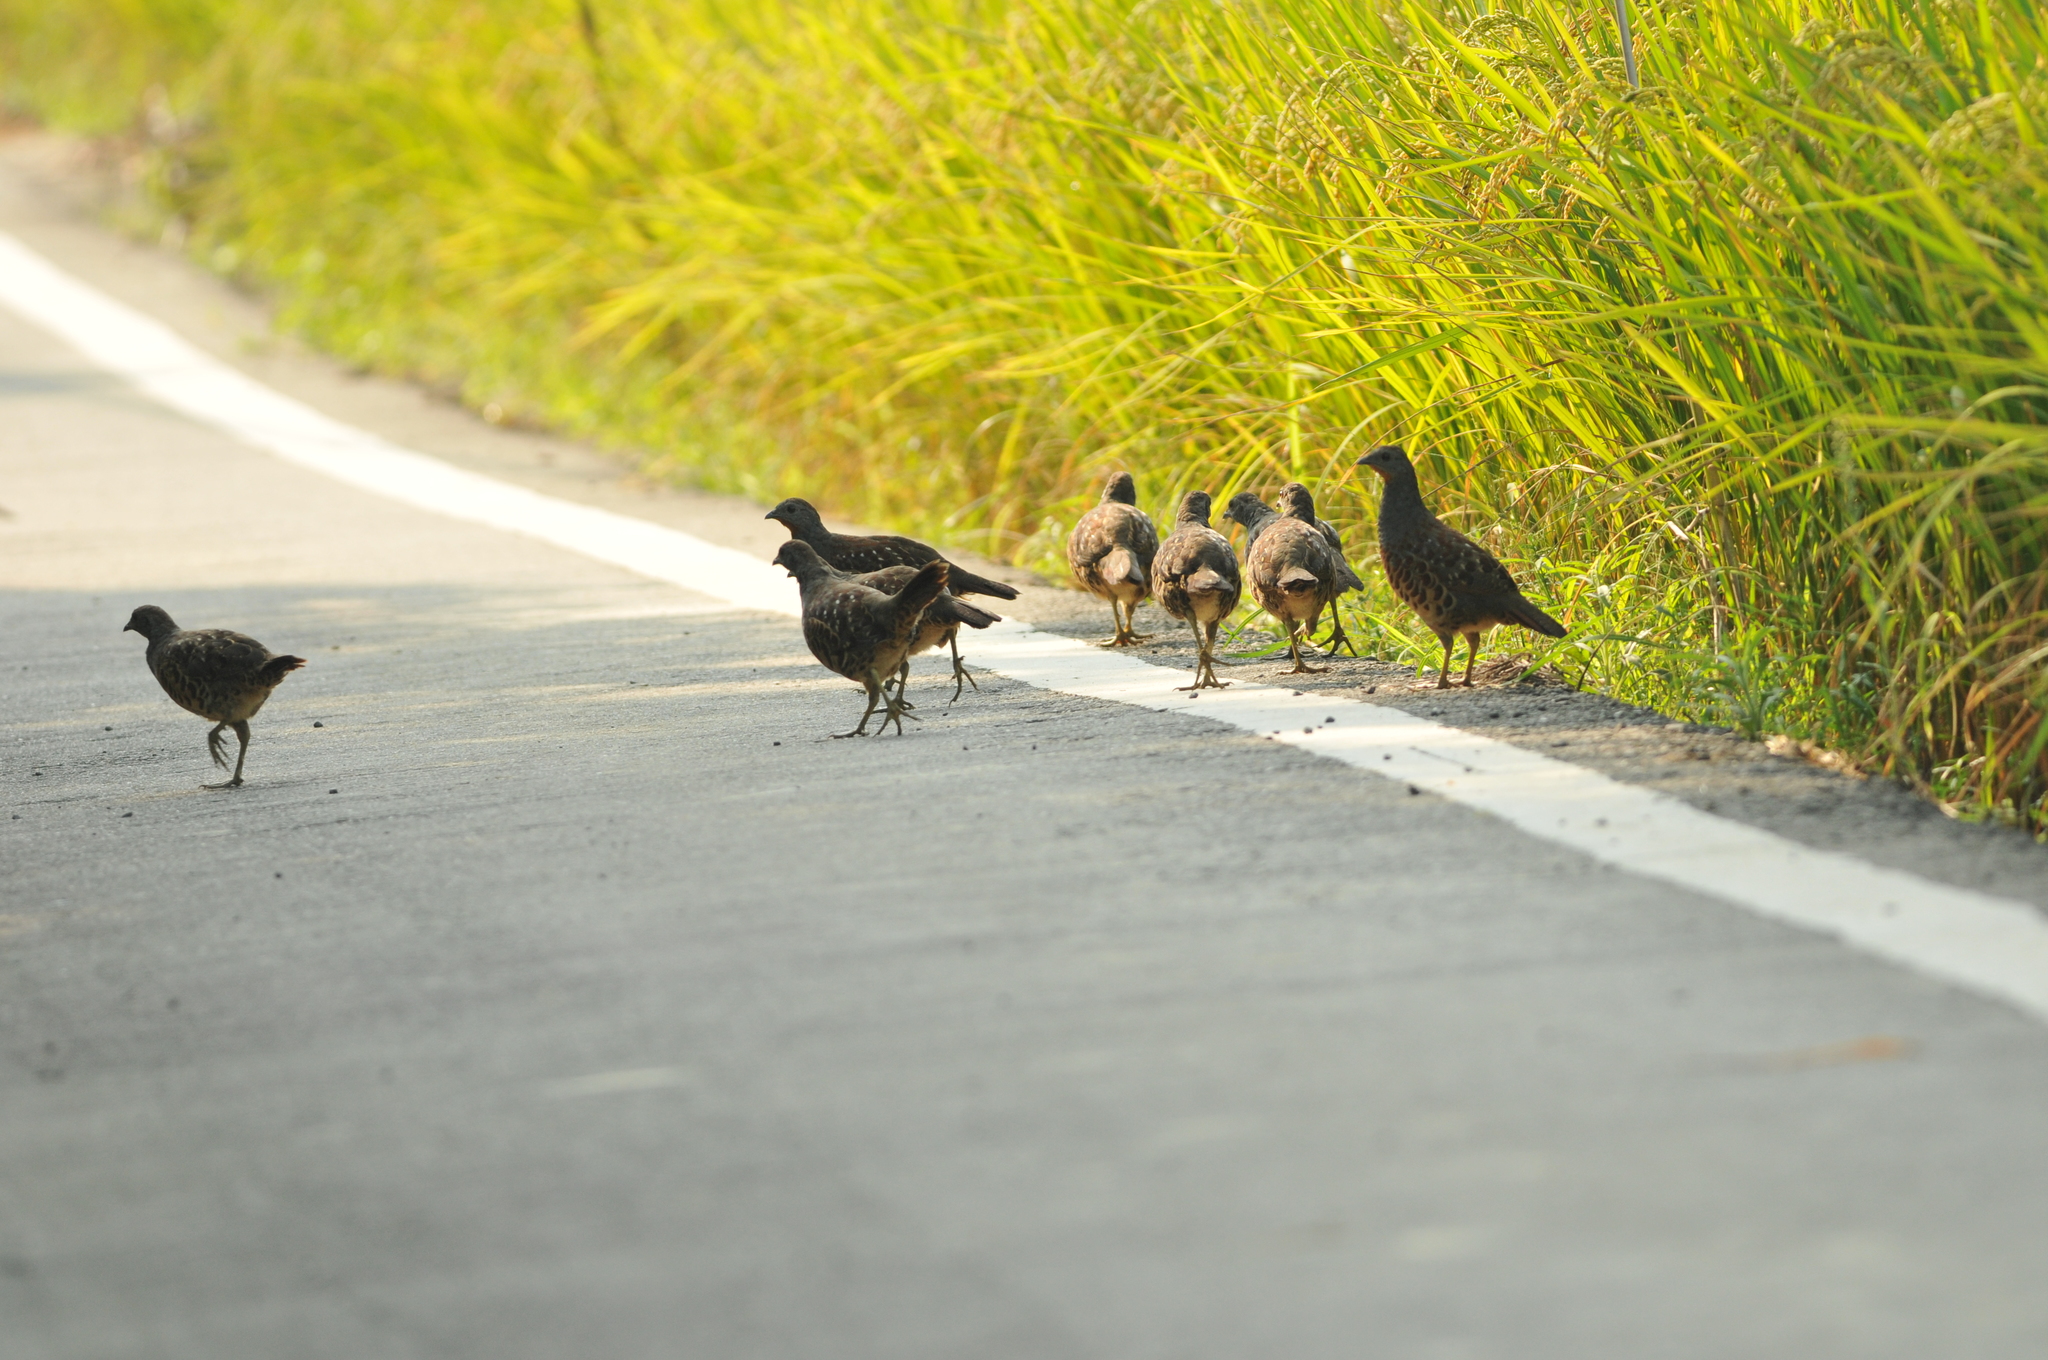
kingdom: Animalia
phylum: Chordata
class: Aves
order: Galliformes
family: Phasianidae
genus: Bambusicola
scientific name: Bambusicola sonorivox
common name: Taiwan bamboo-partridge
